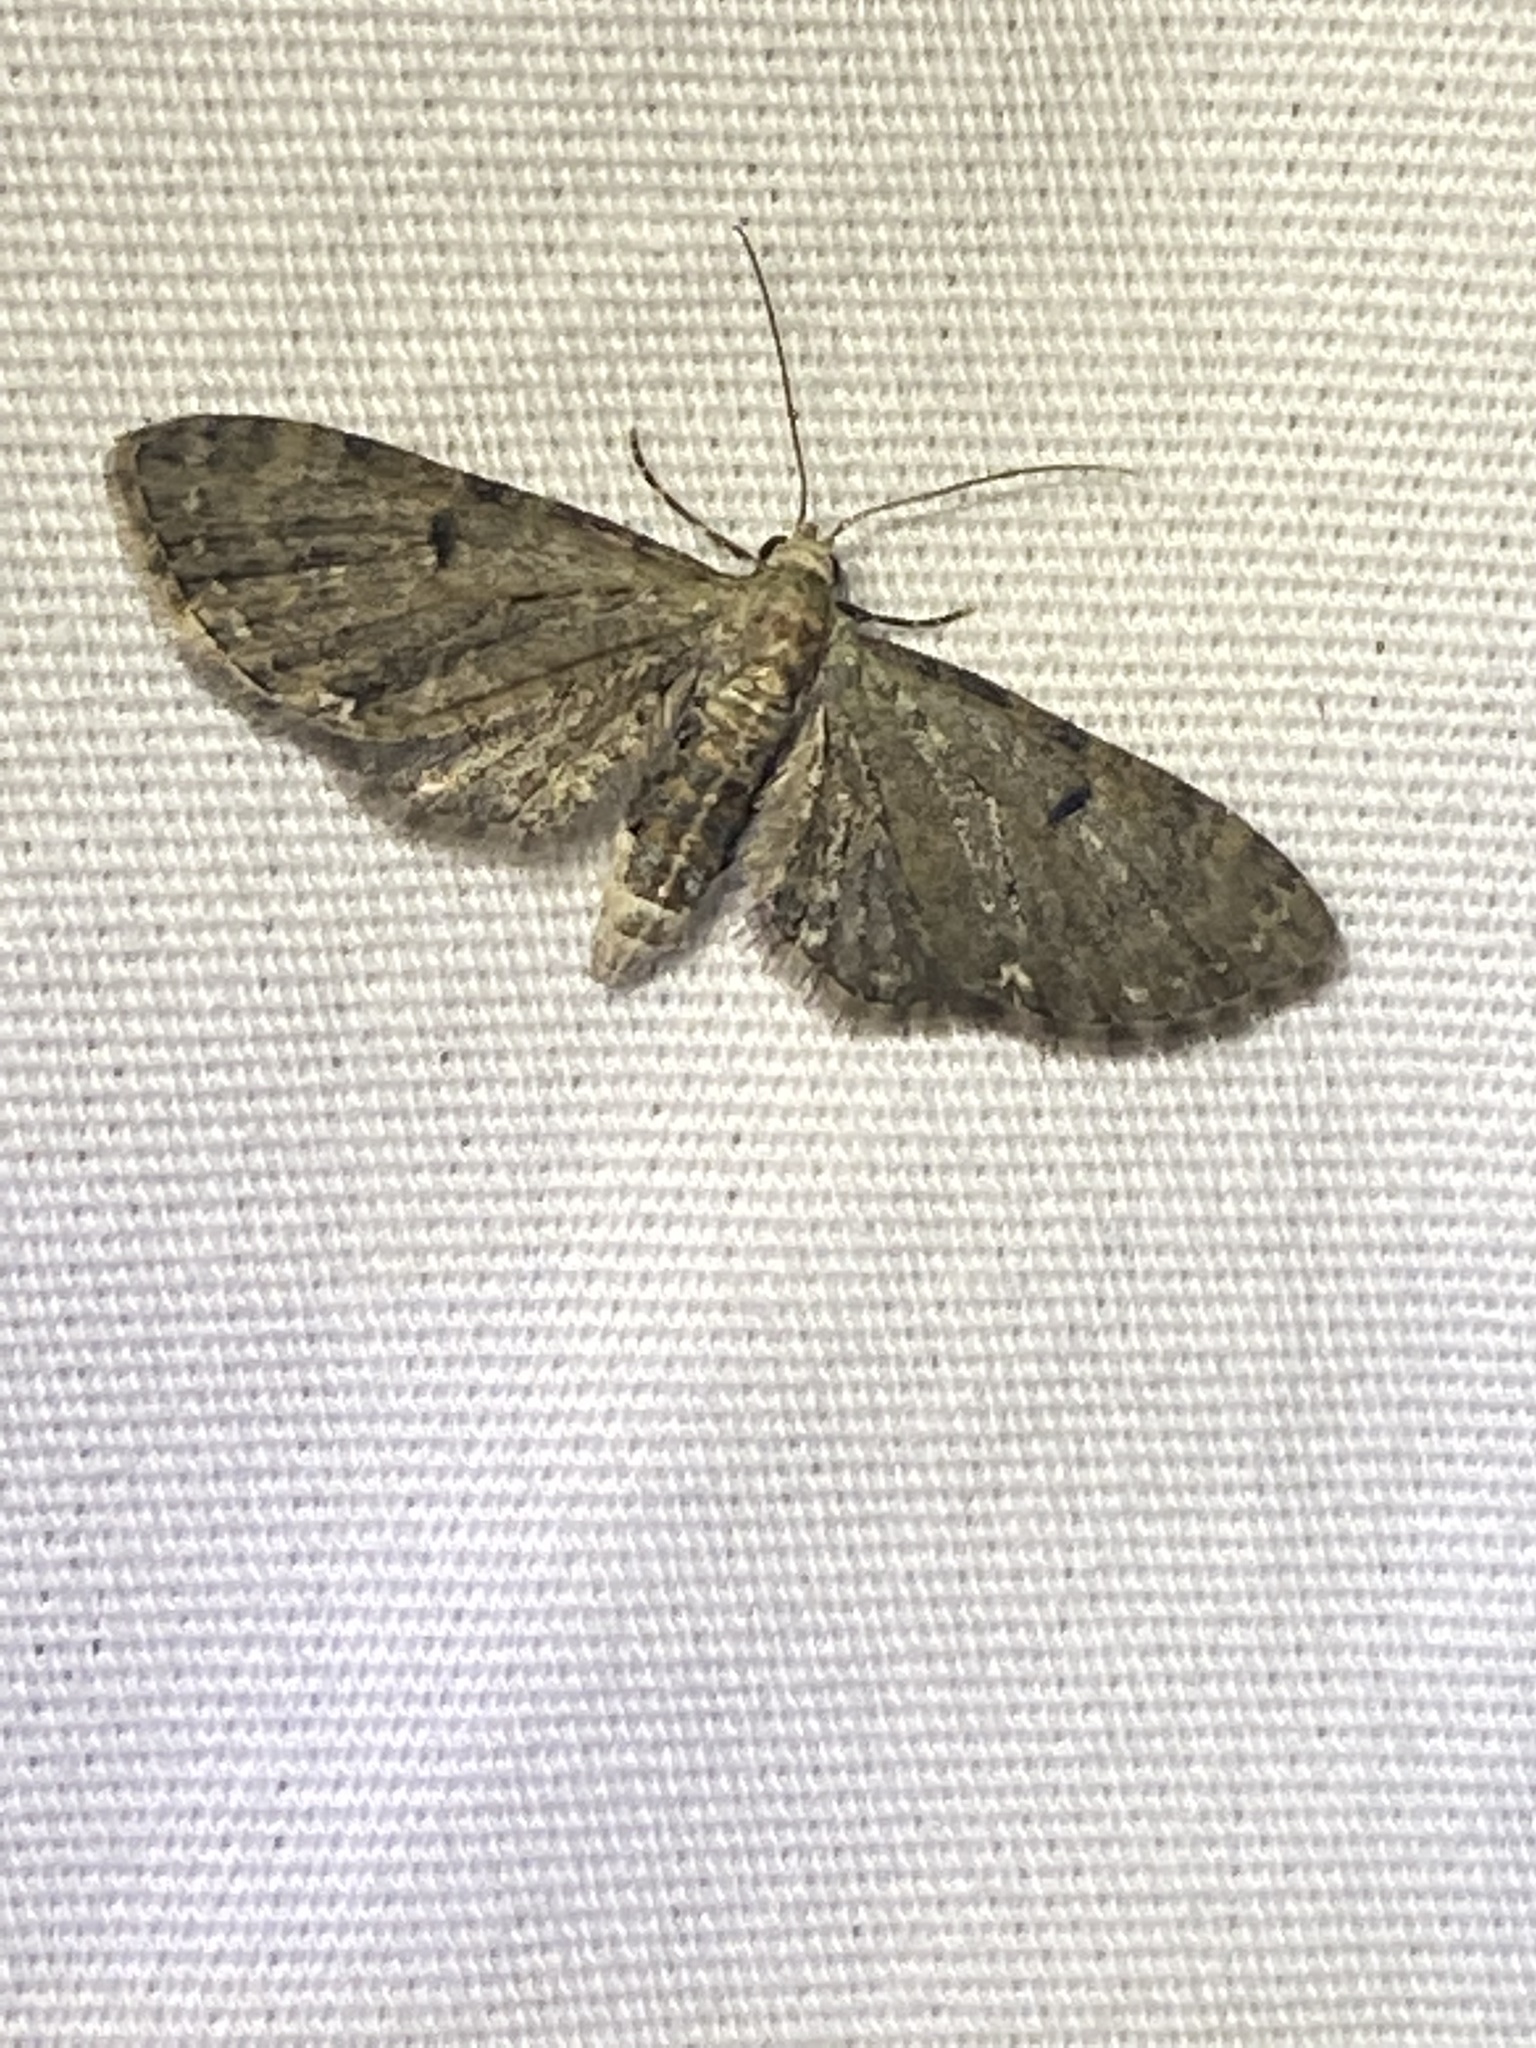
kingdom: Animalia
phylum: Arthropoda
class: Insecta
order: Lepidoptera
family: Geometridae
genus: Eupithecia
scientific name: Eupithecia miserulata
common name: Common eupithecia
